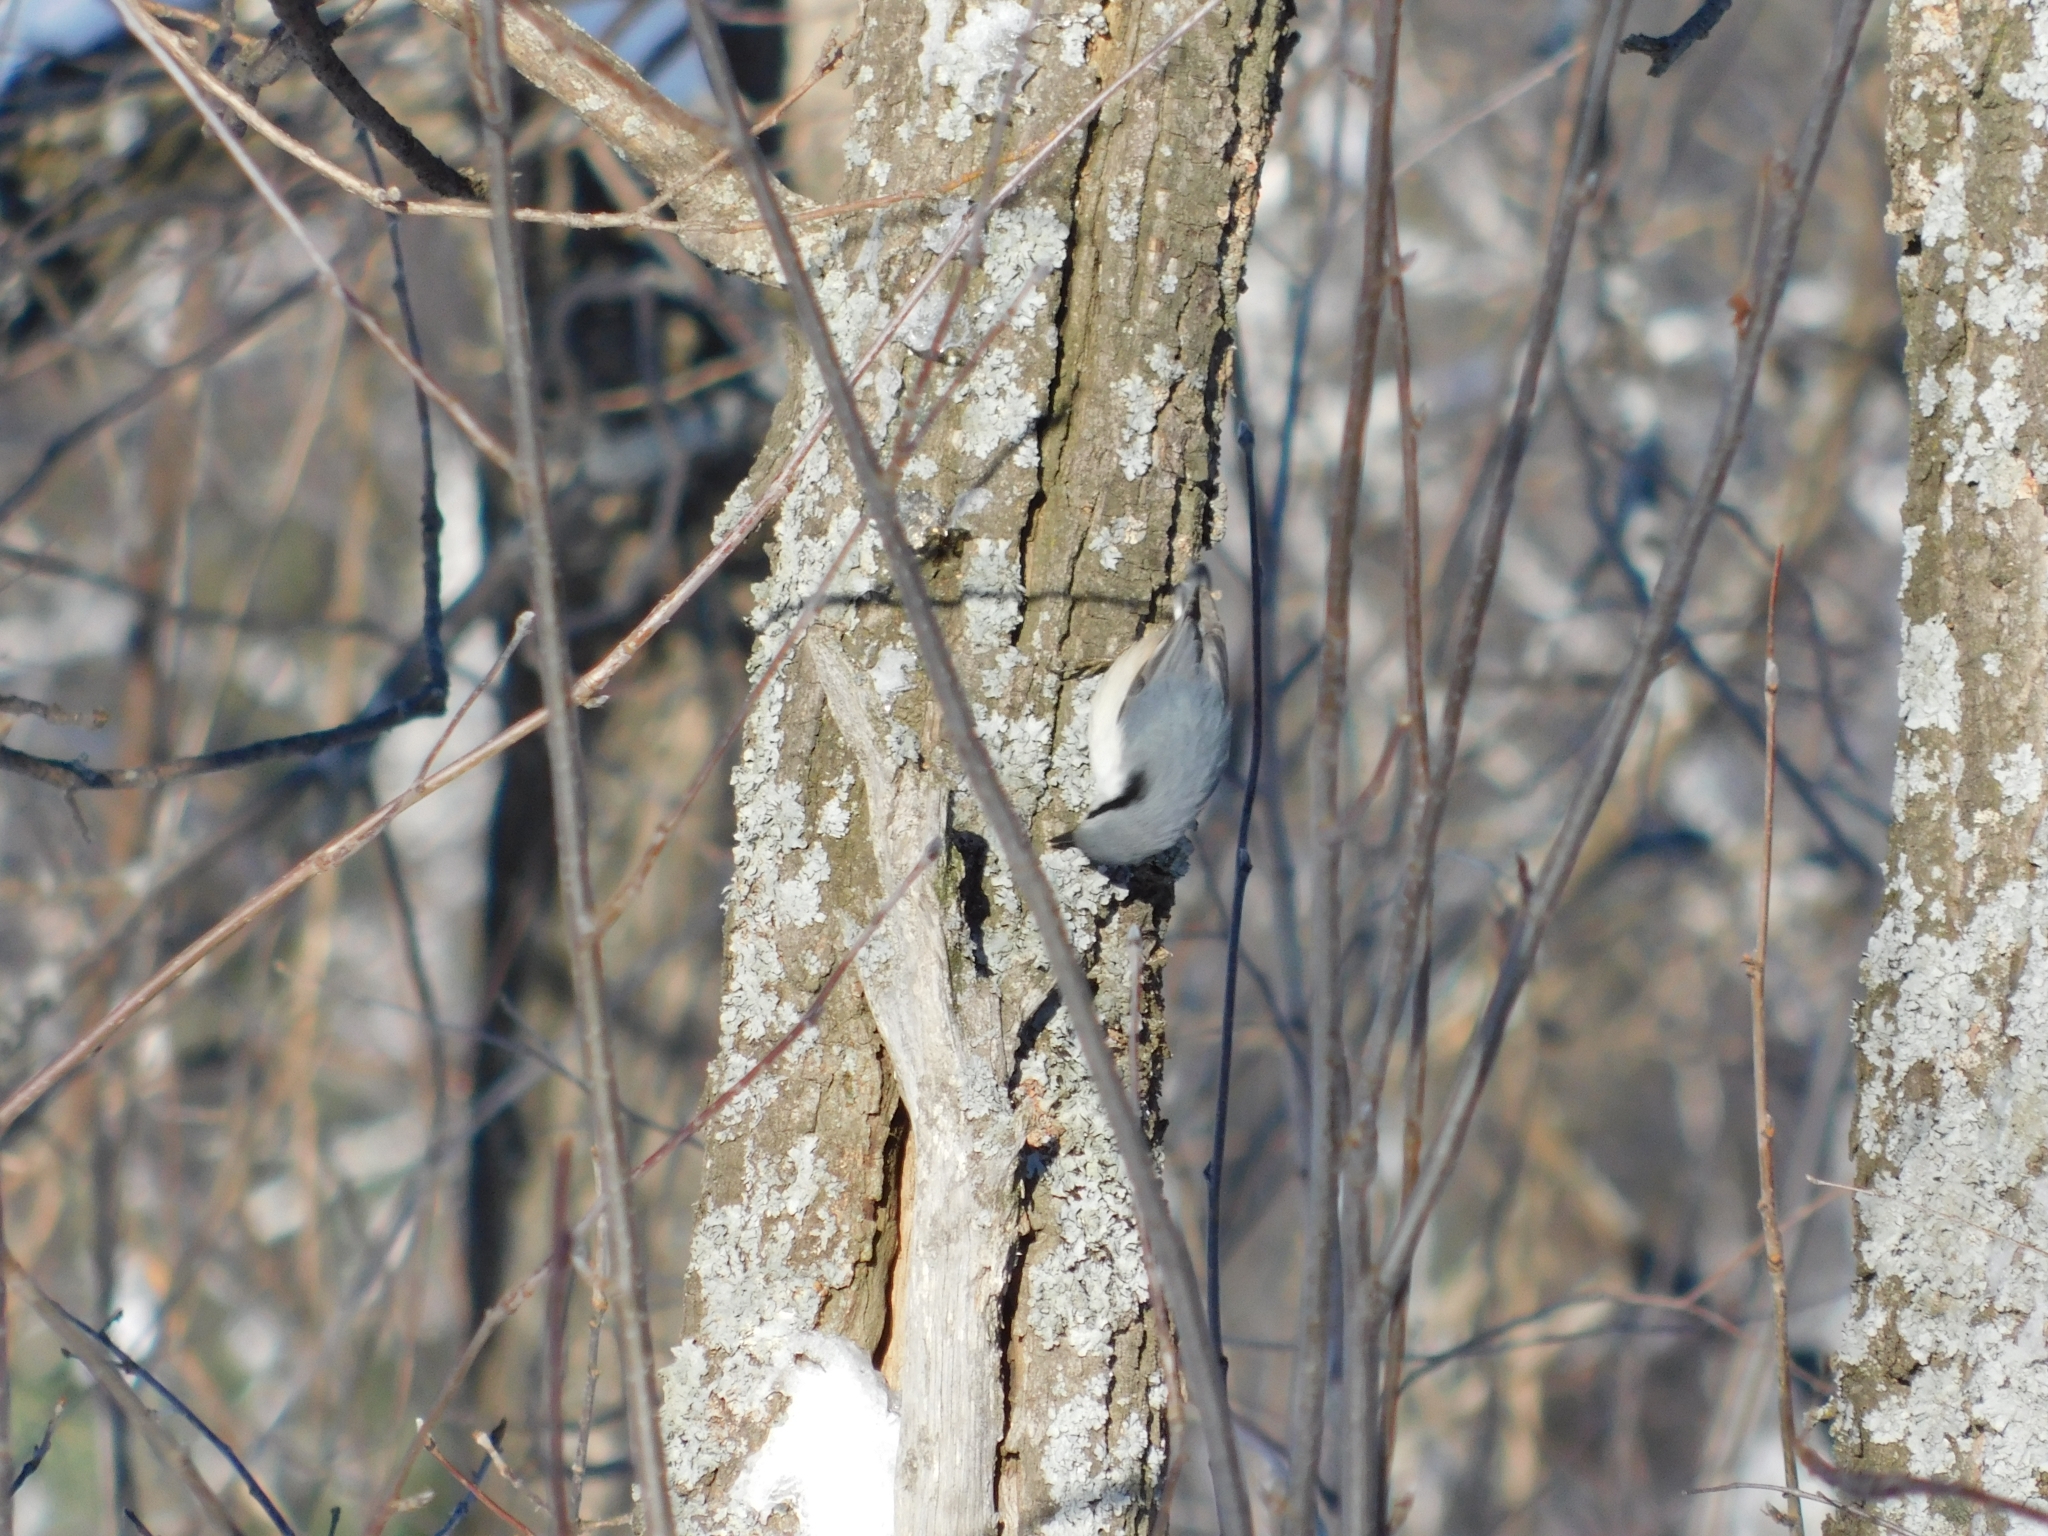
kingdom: Animalia
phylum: Chordata
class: Aves
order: Passeriformes
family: Sittidae
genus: Sitta
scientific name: Sitta europaea
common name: Eurasian nuthatch
